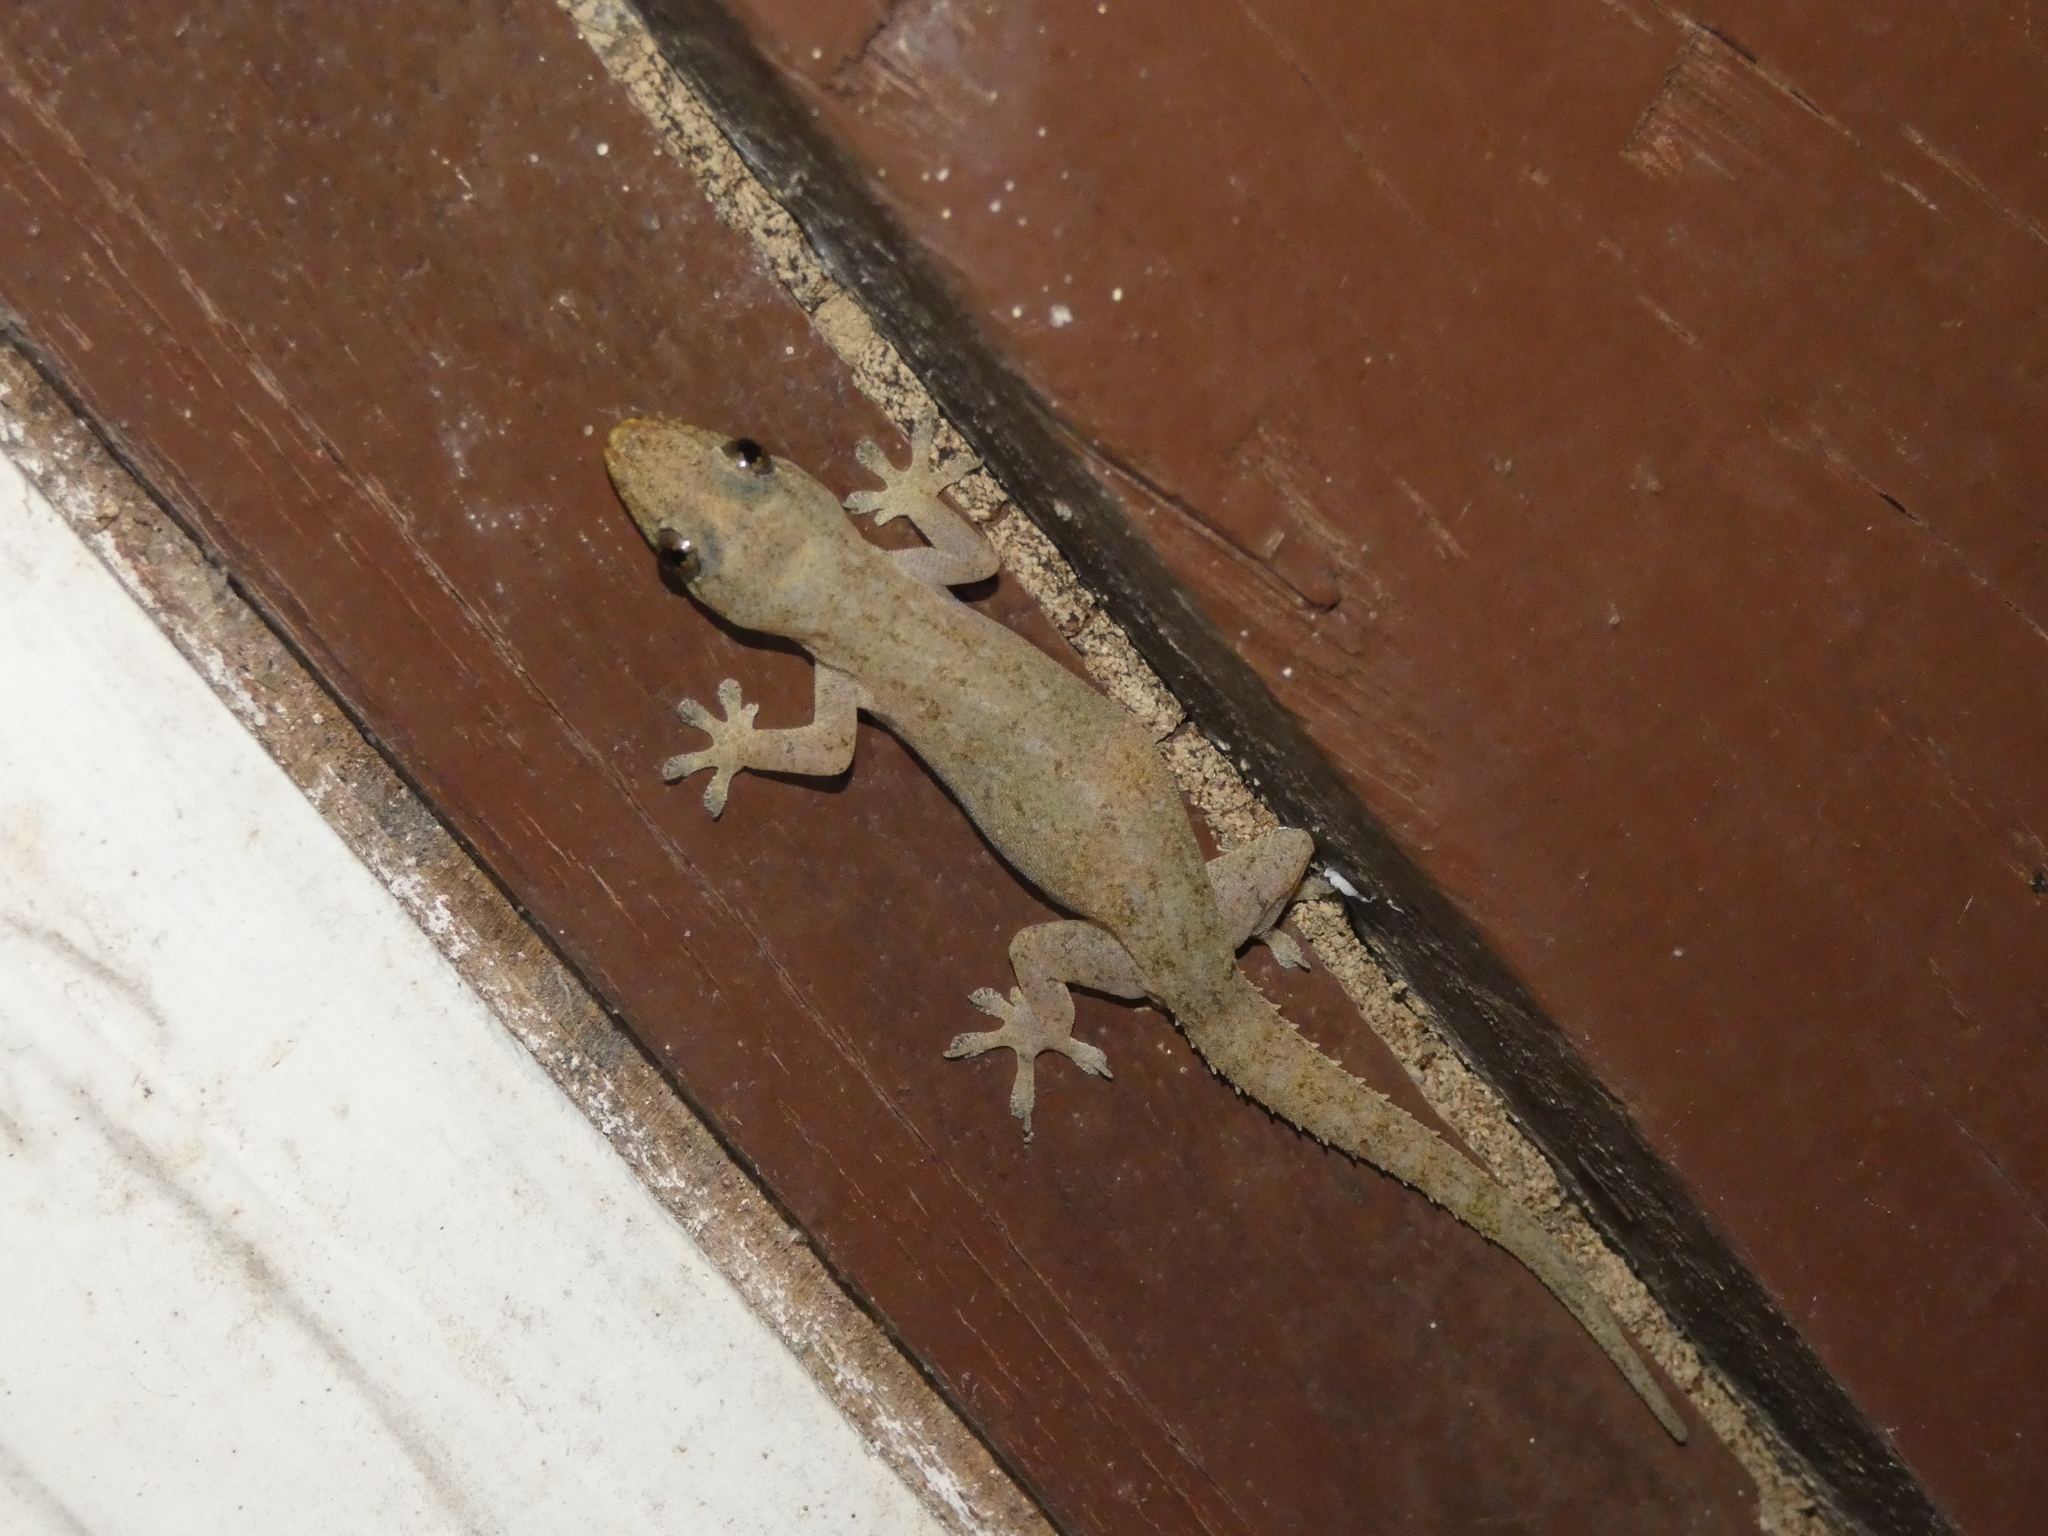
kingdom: Animalia
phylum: Chordata
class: Squamata
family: Gekkonidae
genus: Hemidactylus
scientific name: Hemidactylus frenatus
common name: Common house gecko
